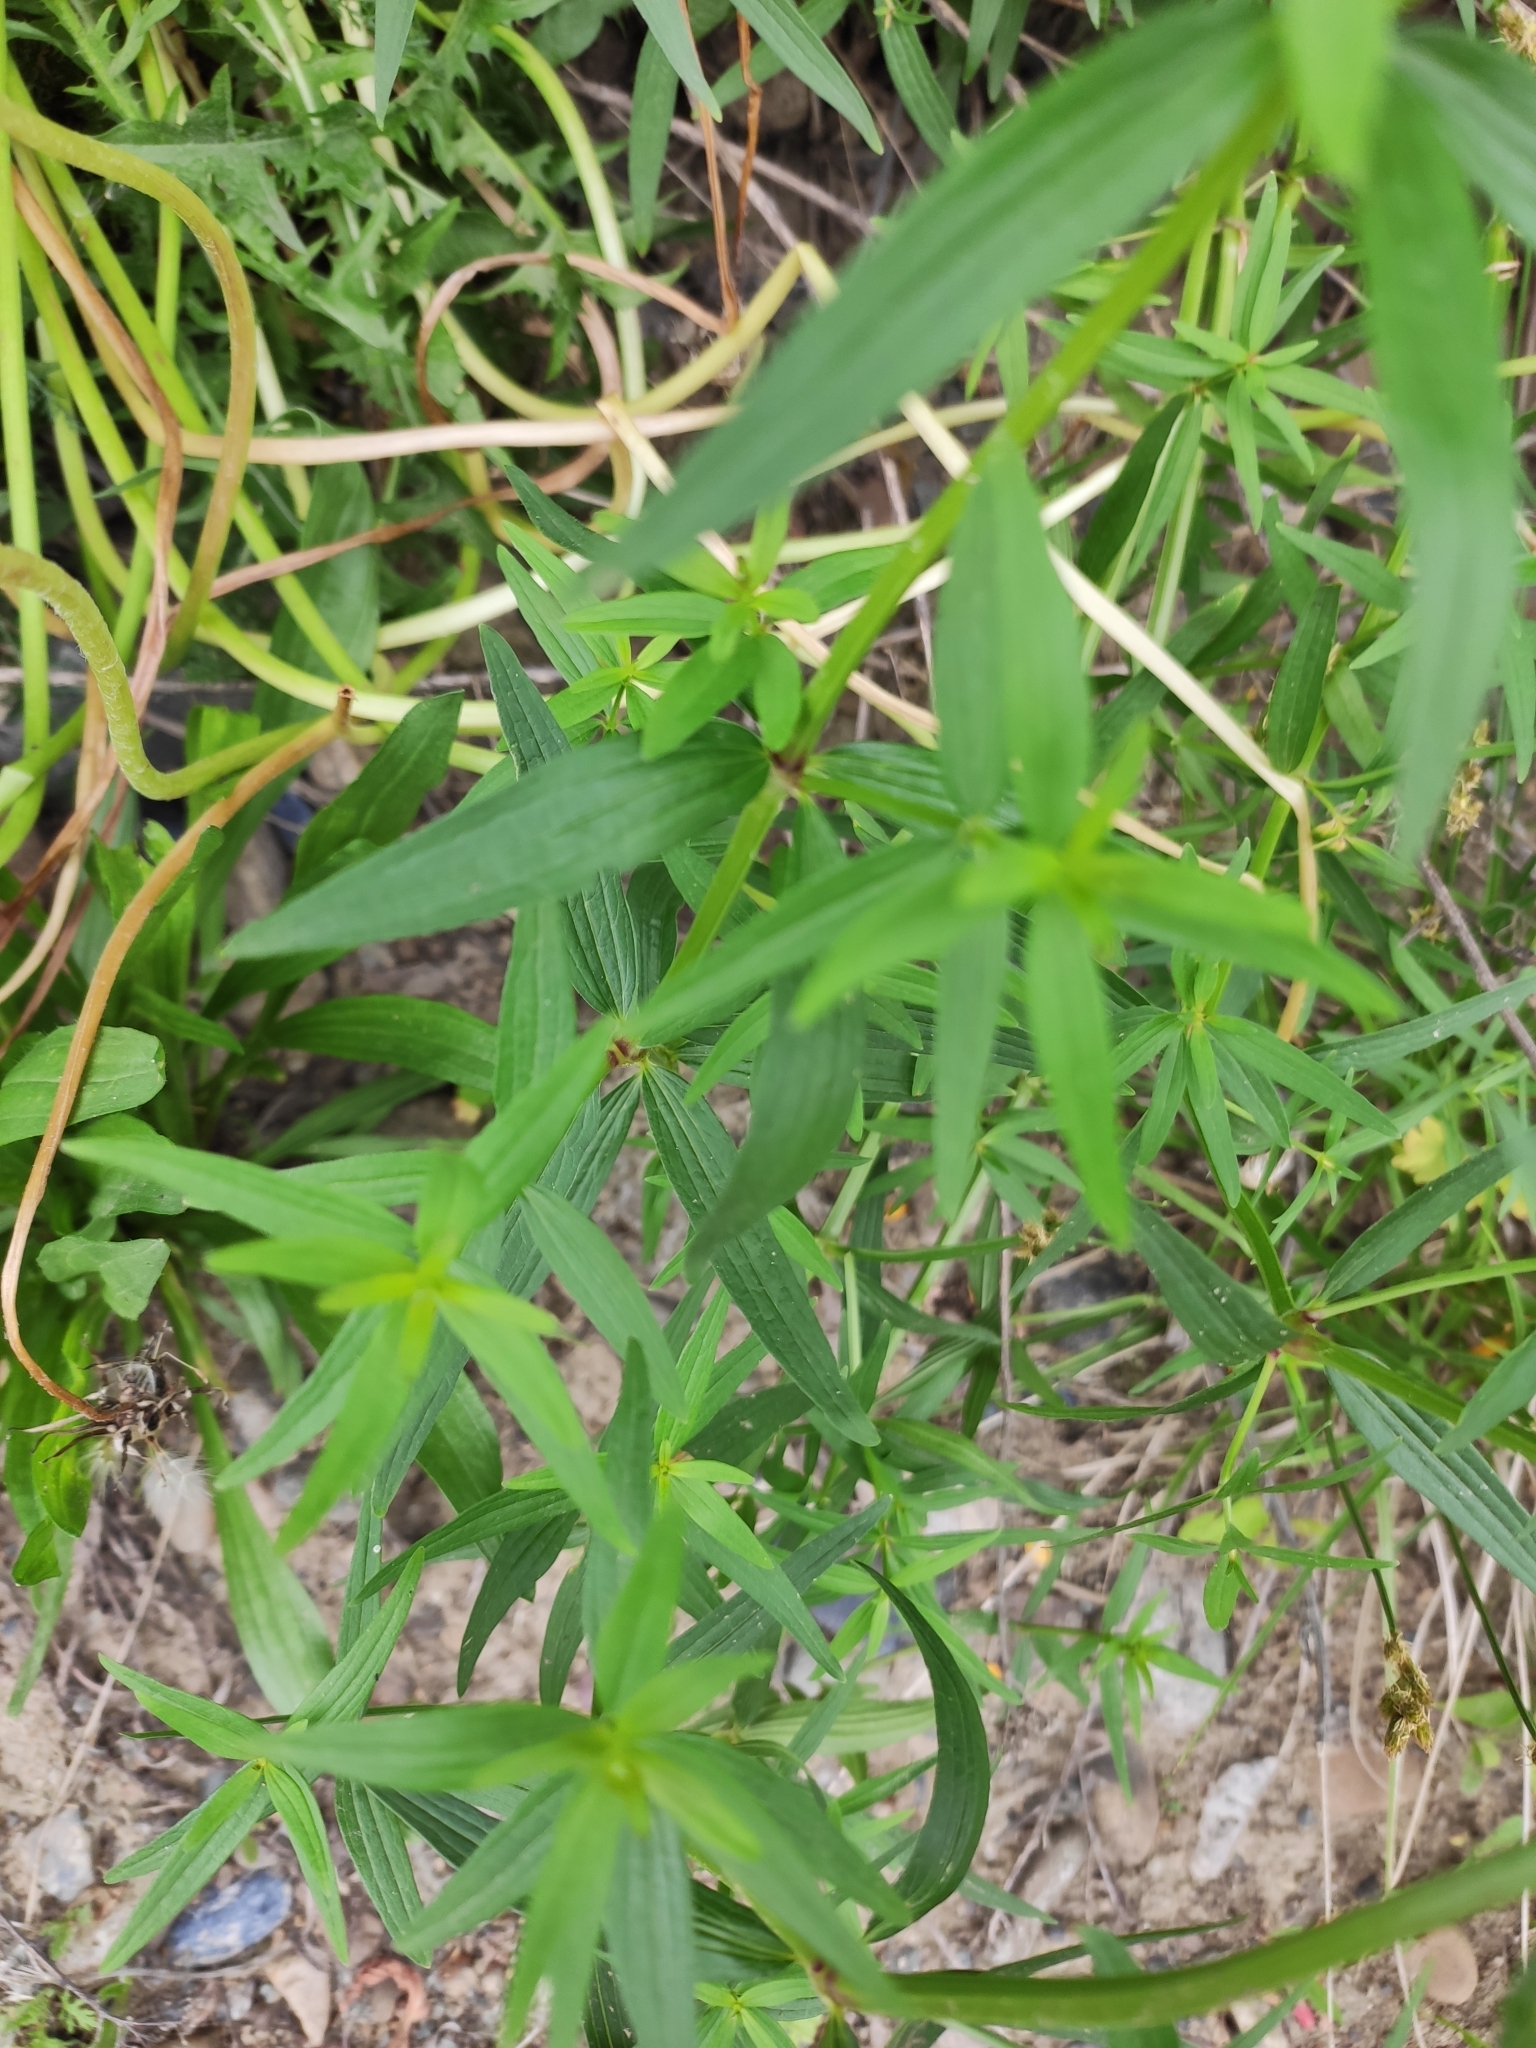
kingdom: Plantae
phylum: Tracheophyta
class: Magnoliopsida
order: Gentianales
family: Rubiaceae
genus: Galium
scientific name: Galium boreale
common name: Northern bedstraw
